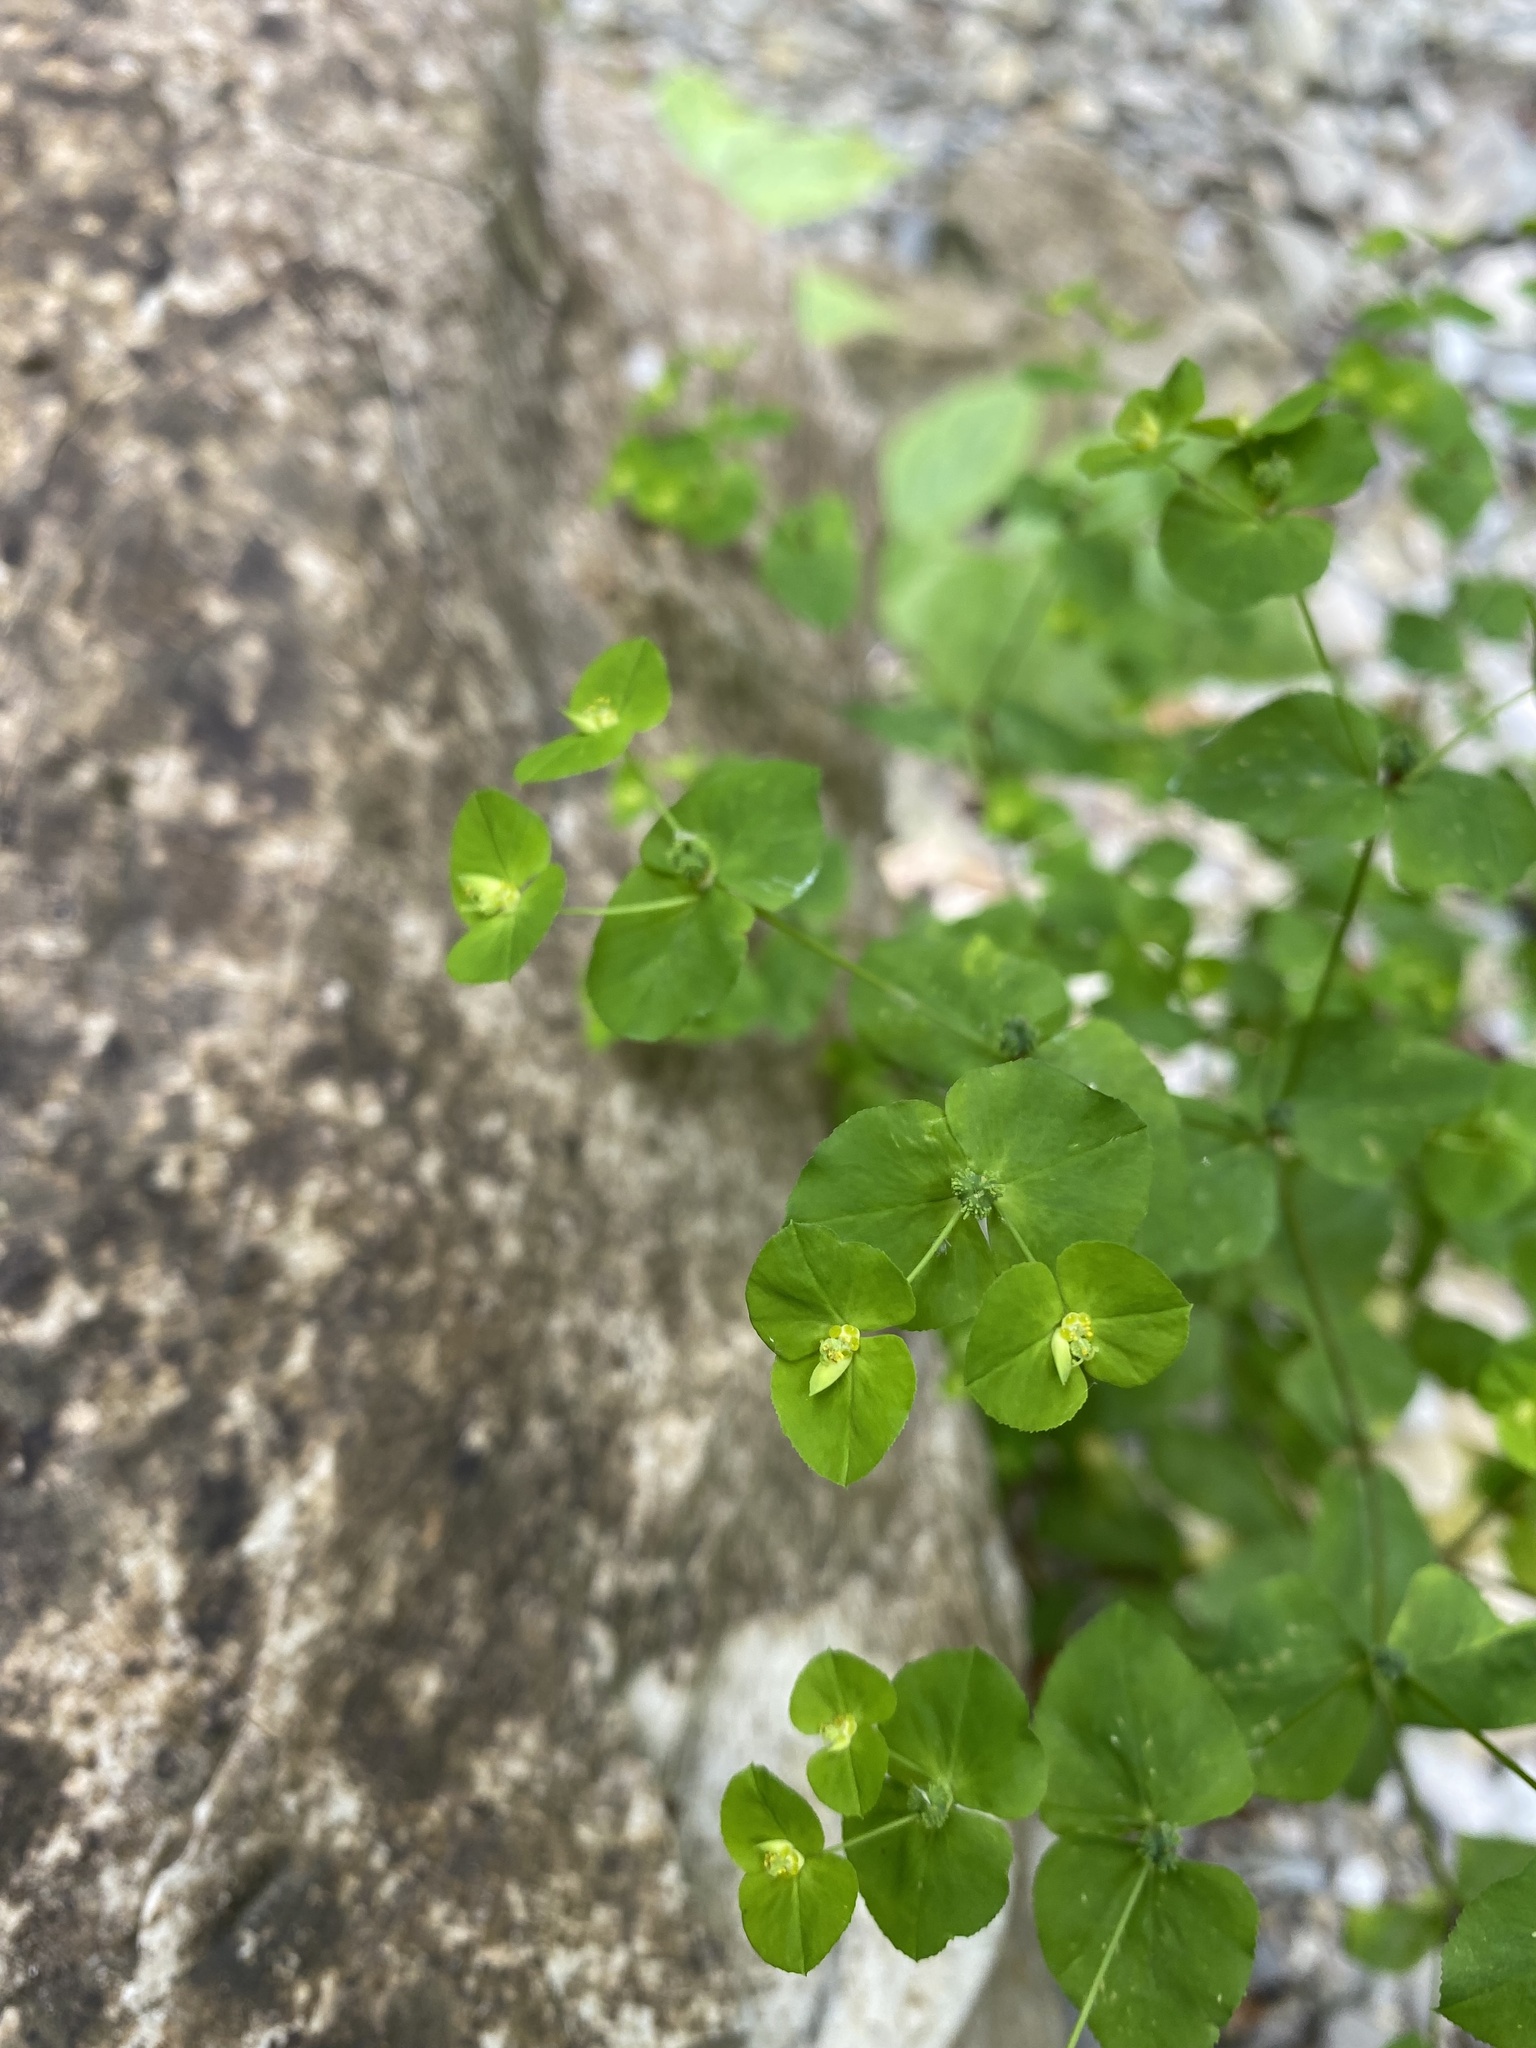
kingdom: Plantae
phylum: Tracheophyta
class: Magnoliopsida
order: Malpighiales
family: Euphorbiaceae
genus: Euphorbia
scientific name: Euphorbia stricta
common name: Upright spurge
